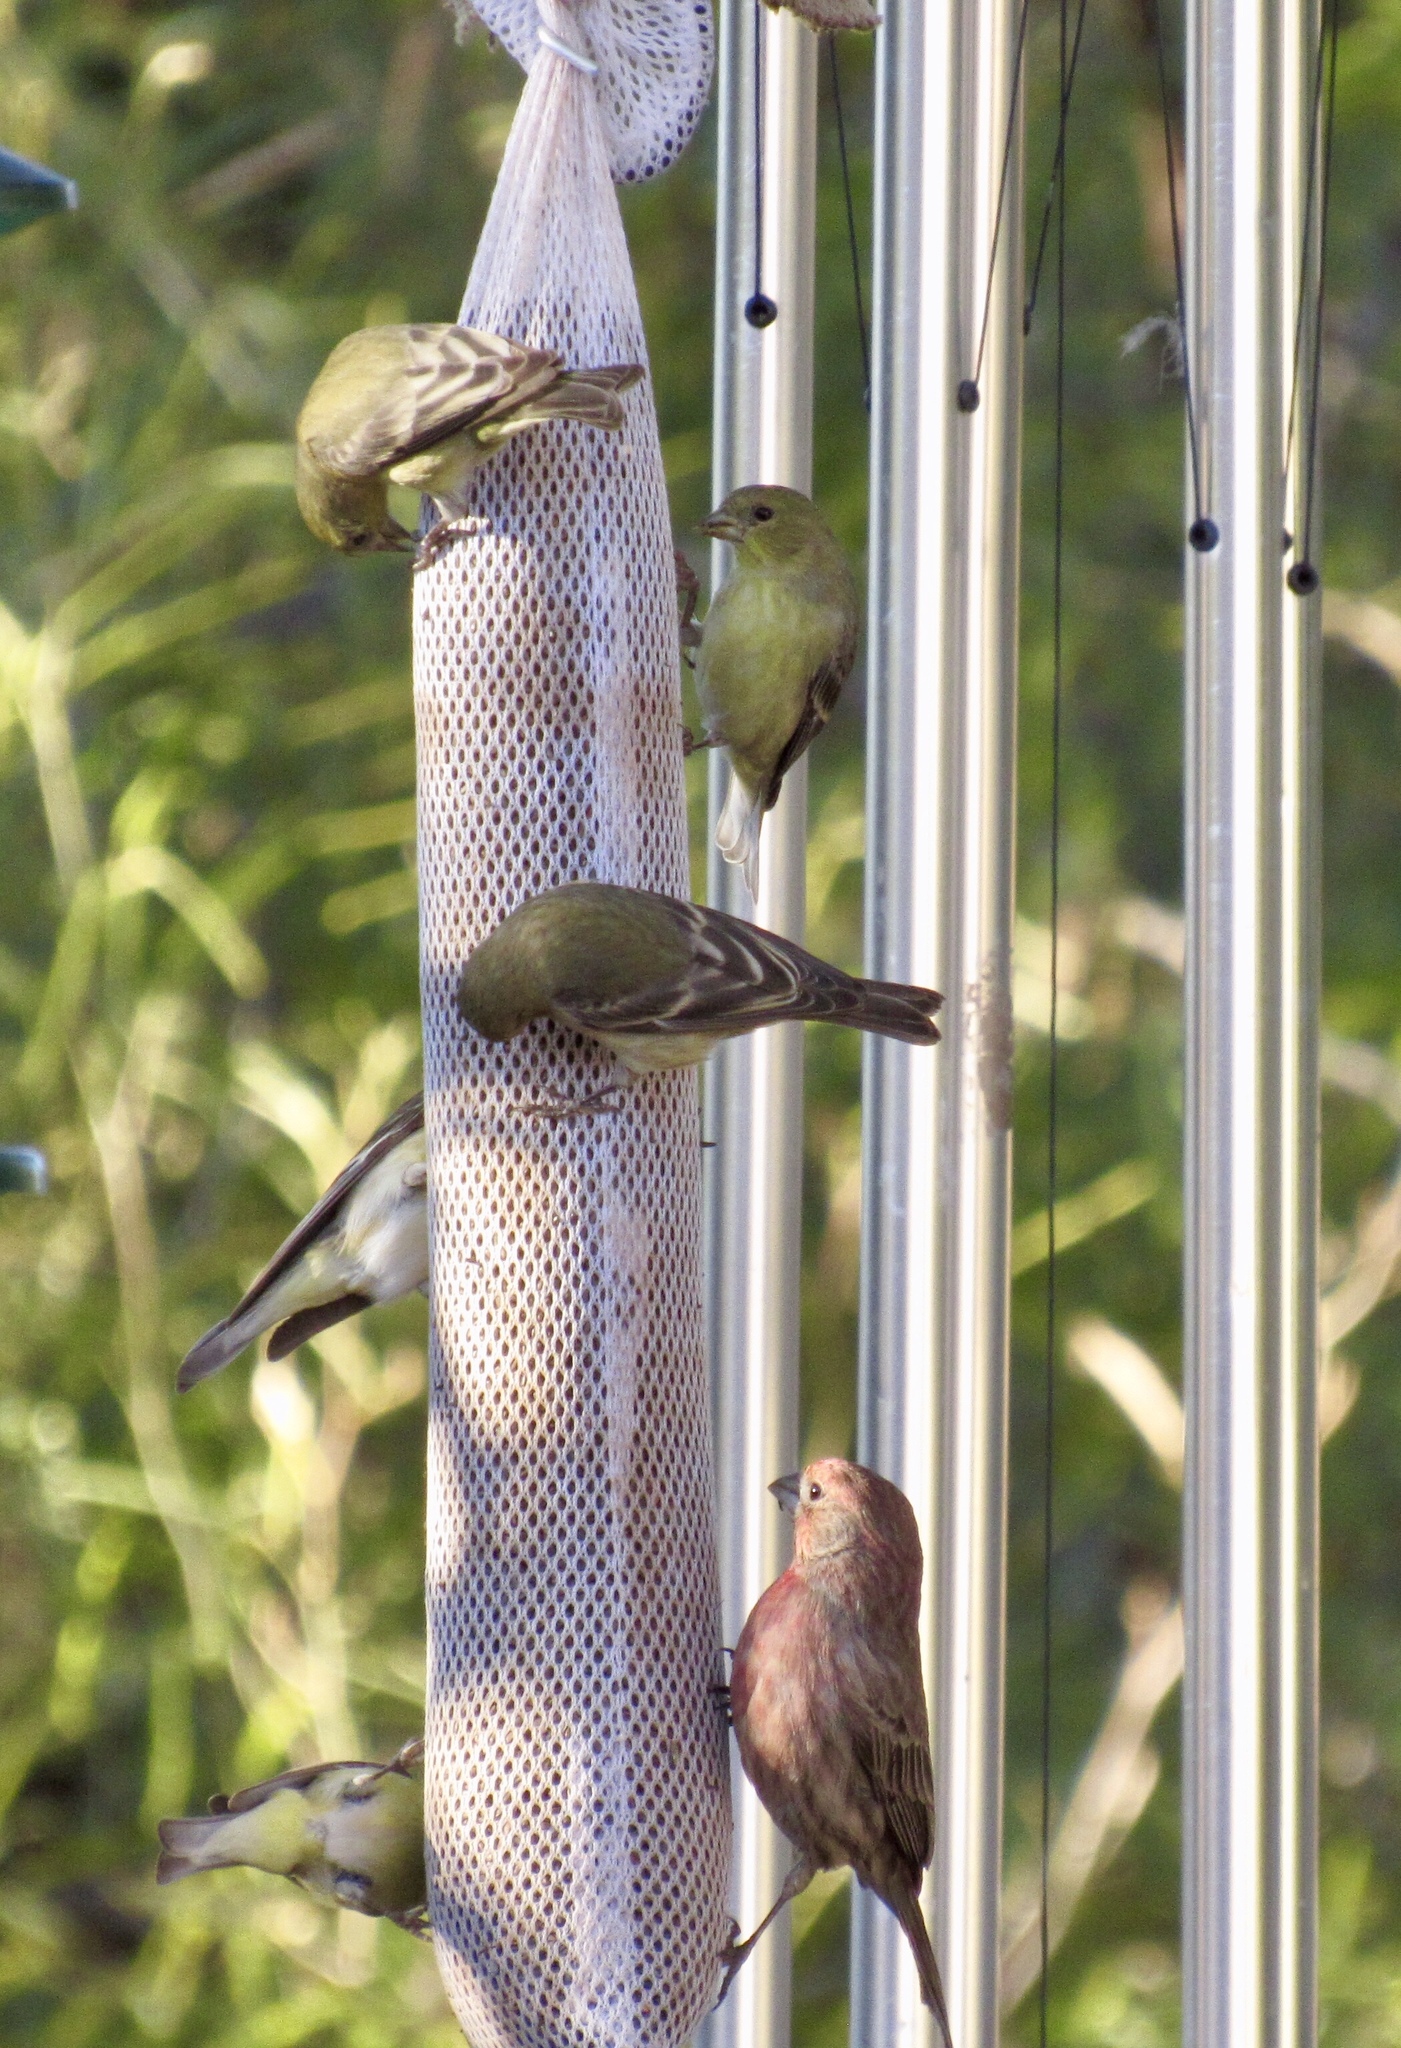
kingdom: Animalia
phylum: Chordata
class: Aves
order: Passeriformes
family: Fringillidae
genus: Spinus
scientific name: Spinus psaltria
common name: Lesser goldfinch
